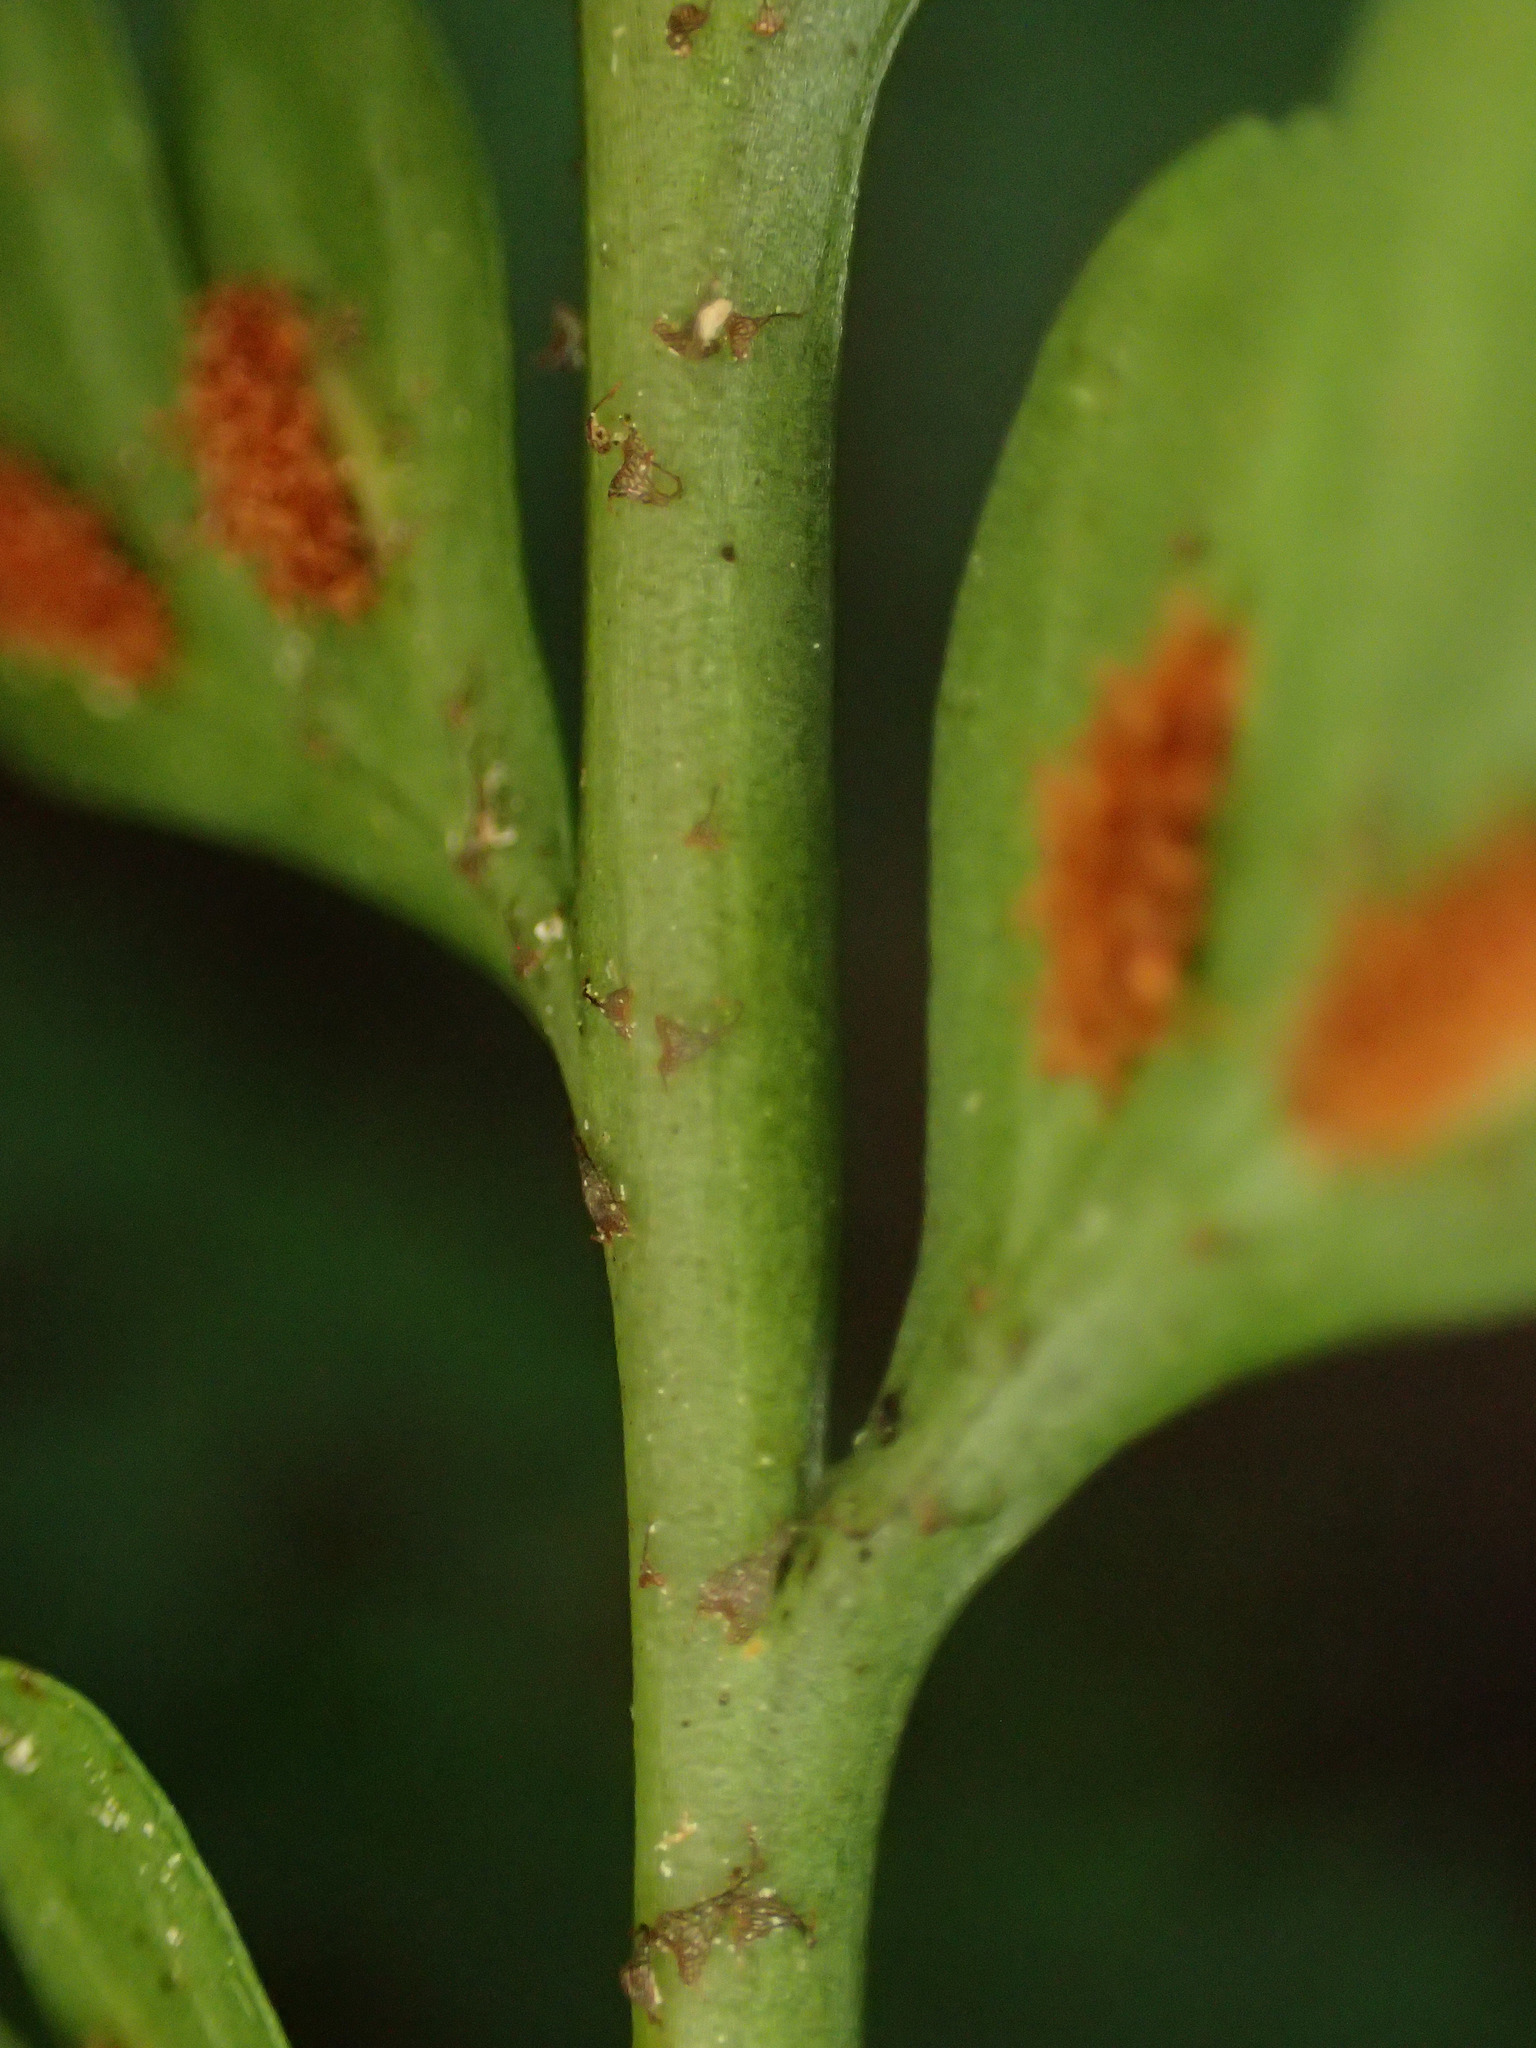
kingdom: Plantae
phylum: Tracheophyta
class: Polypodiopsida
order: Polypodiales
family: Aspleniaceae
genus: Asplenium
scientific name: Asplenium
